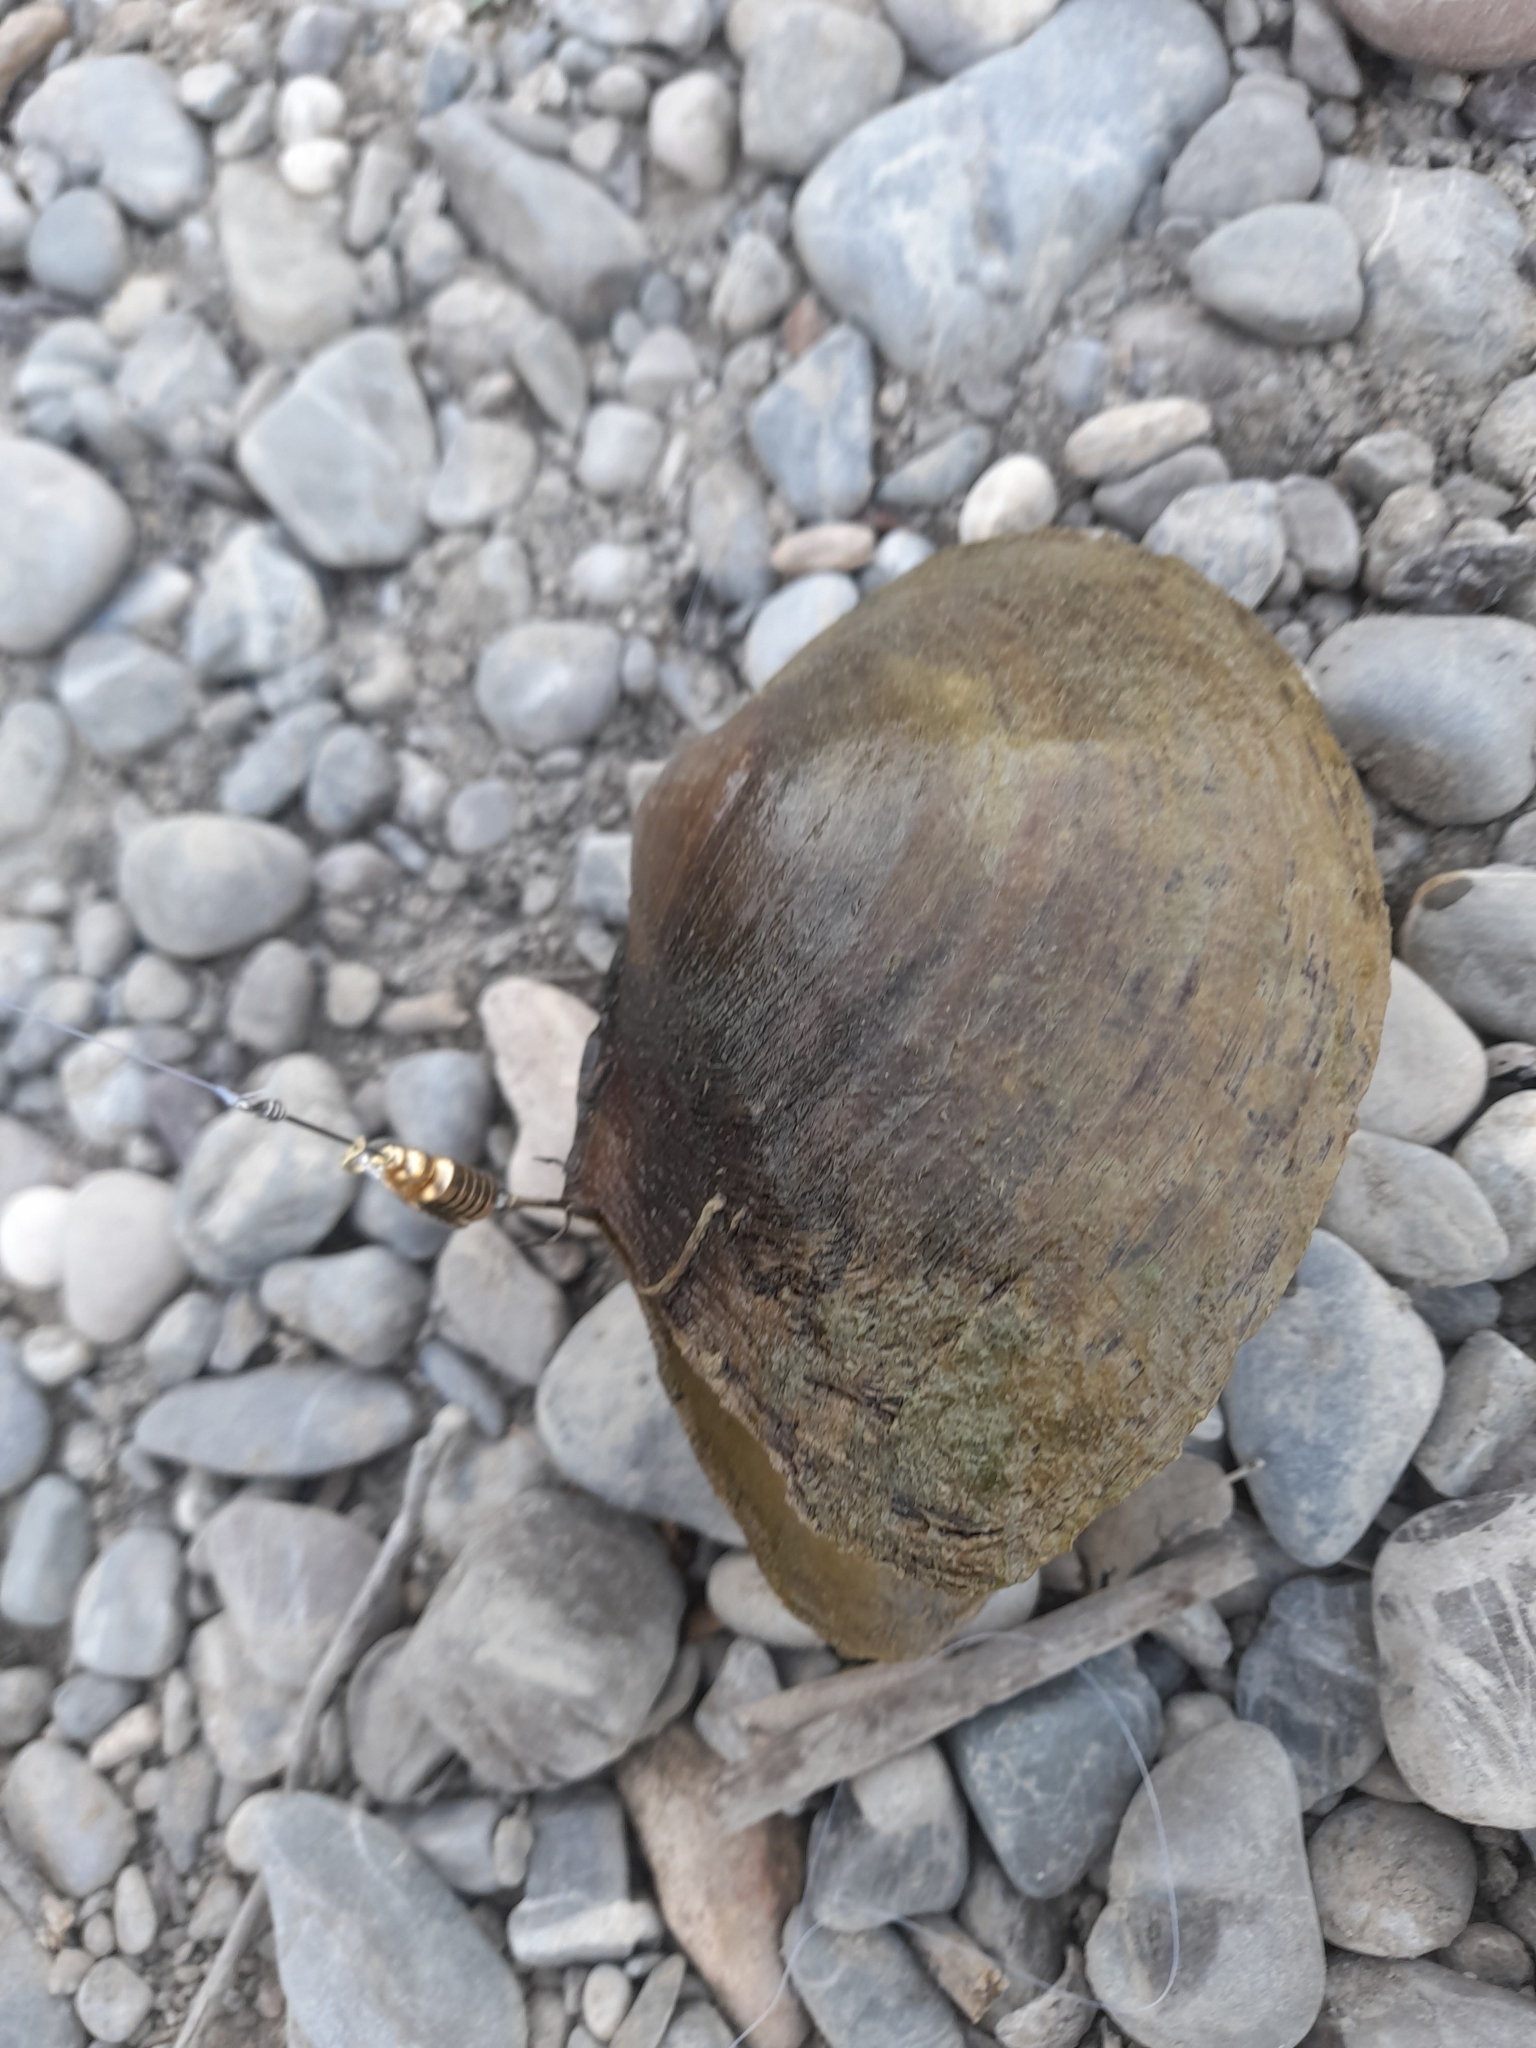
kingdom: Animalia
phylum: Mollusca
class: Bivalvia
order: Unionida
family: Unionidae
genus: Sinanodonta
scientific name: Sinanodonta woodiana
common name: Chinese pond mussel
